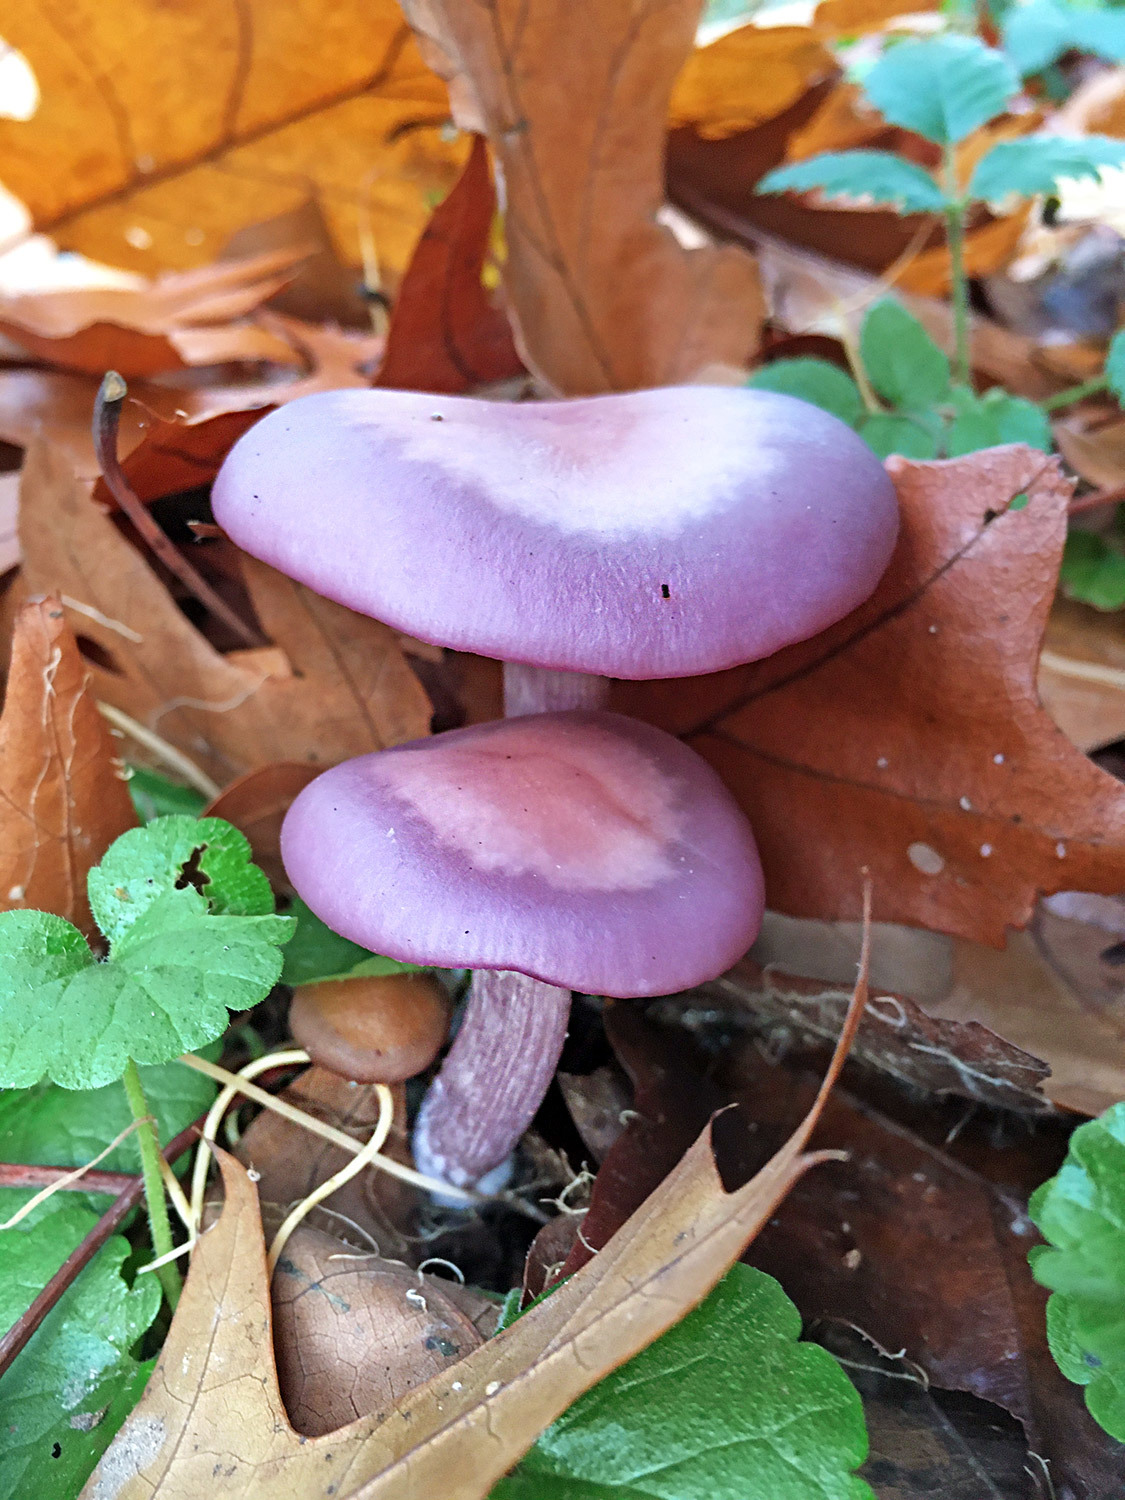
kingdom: Fungi
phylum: Basidiomycota
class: Agaricomycetes
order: Agaricales
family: Tricholomataceae
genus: Collybia
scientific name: Collybia
